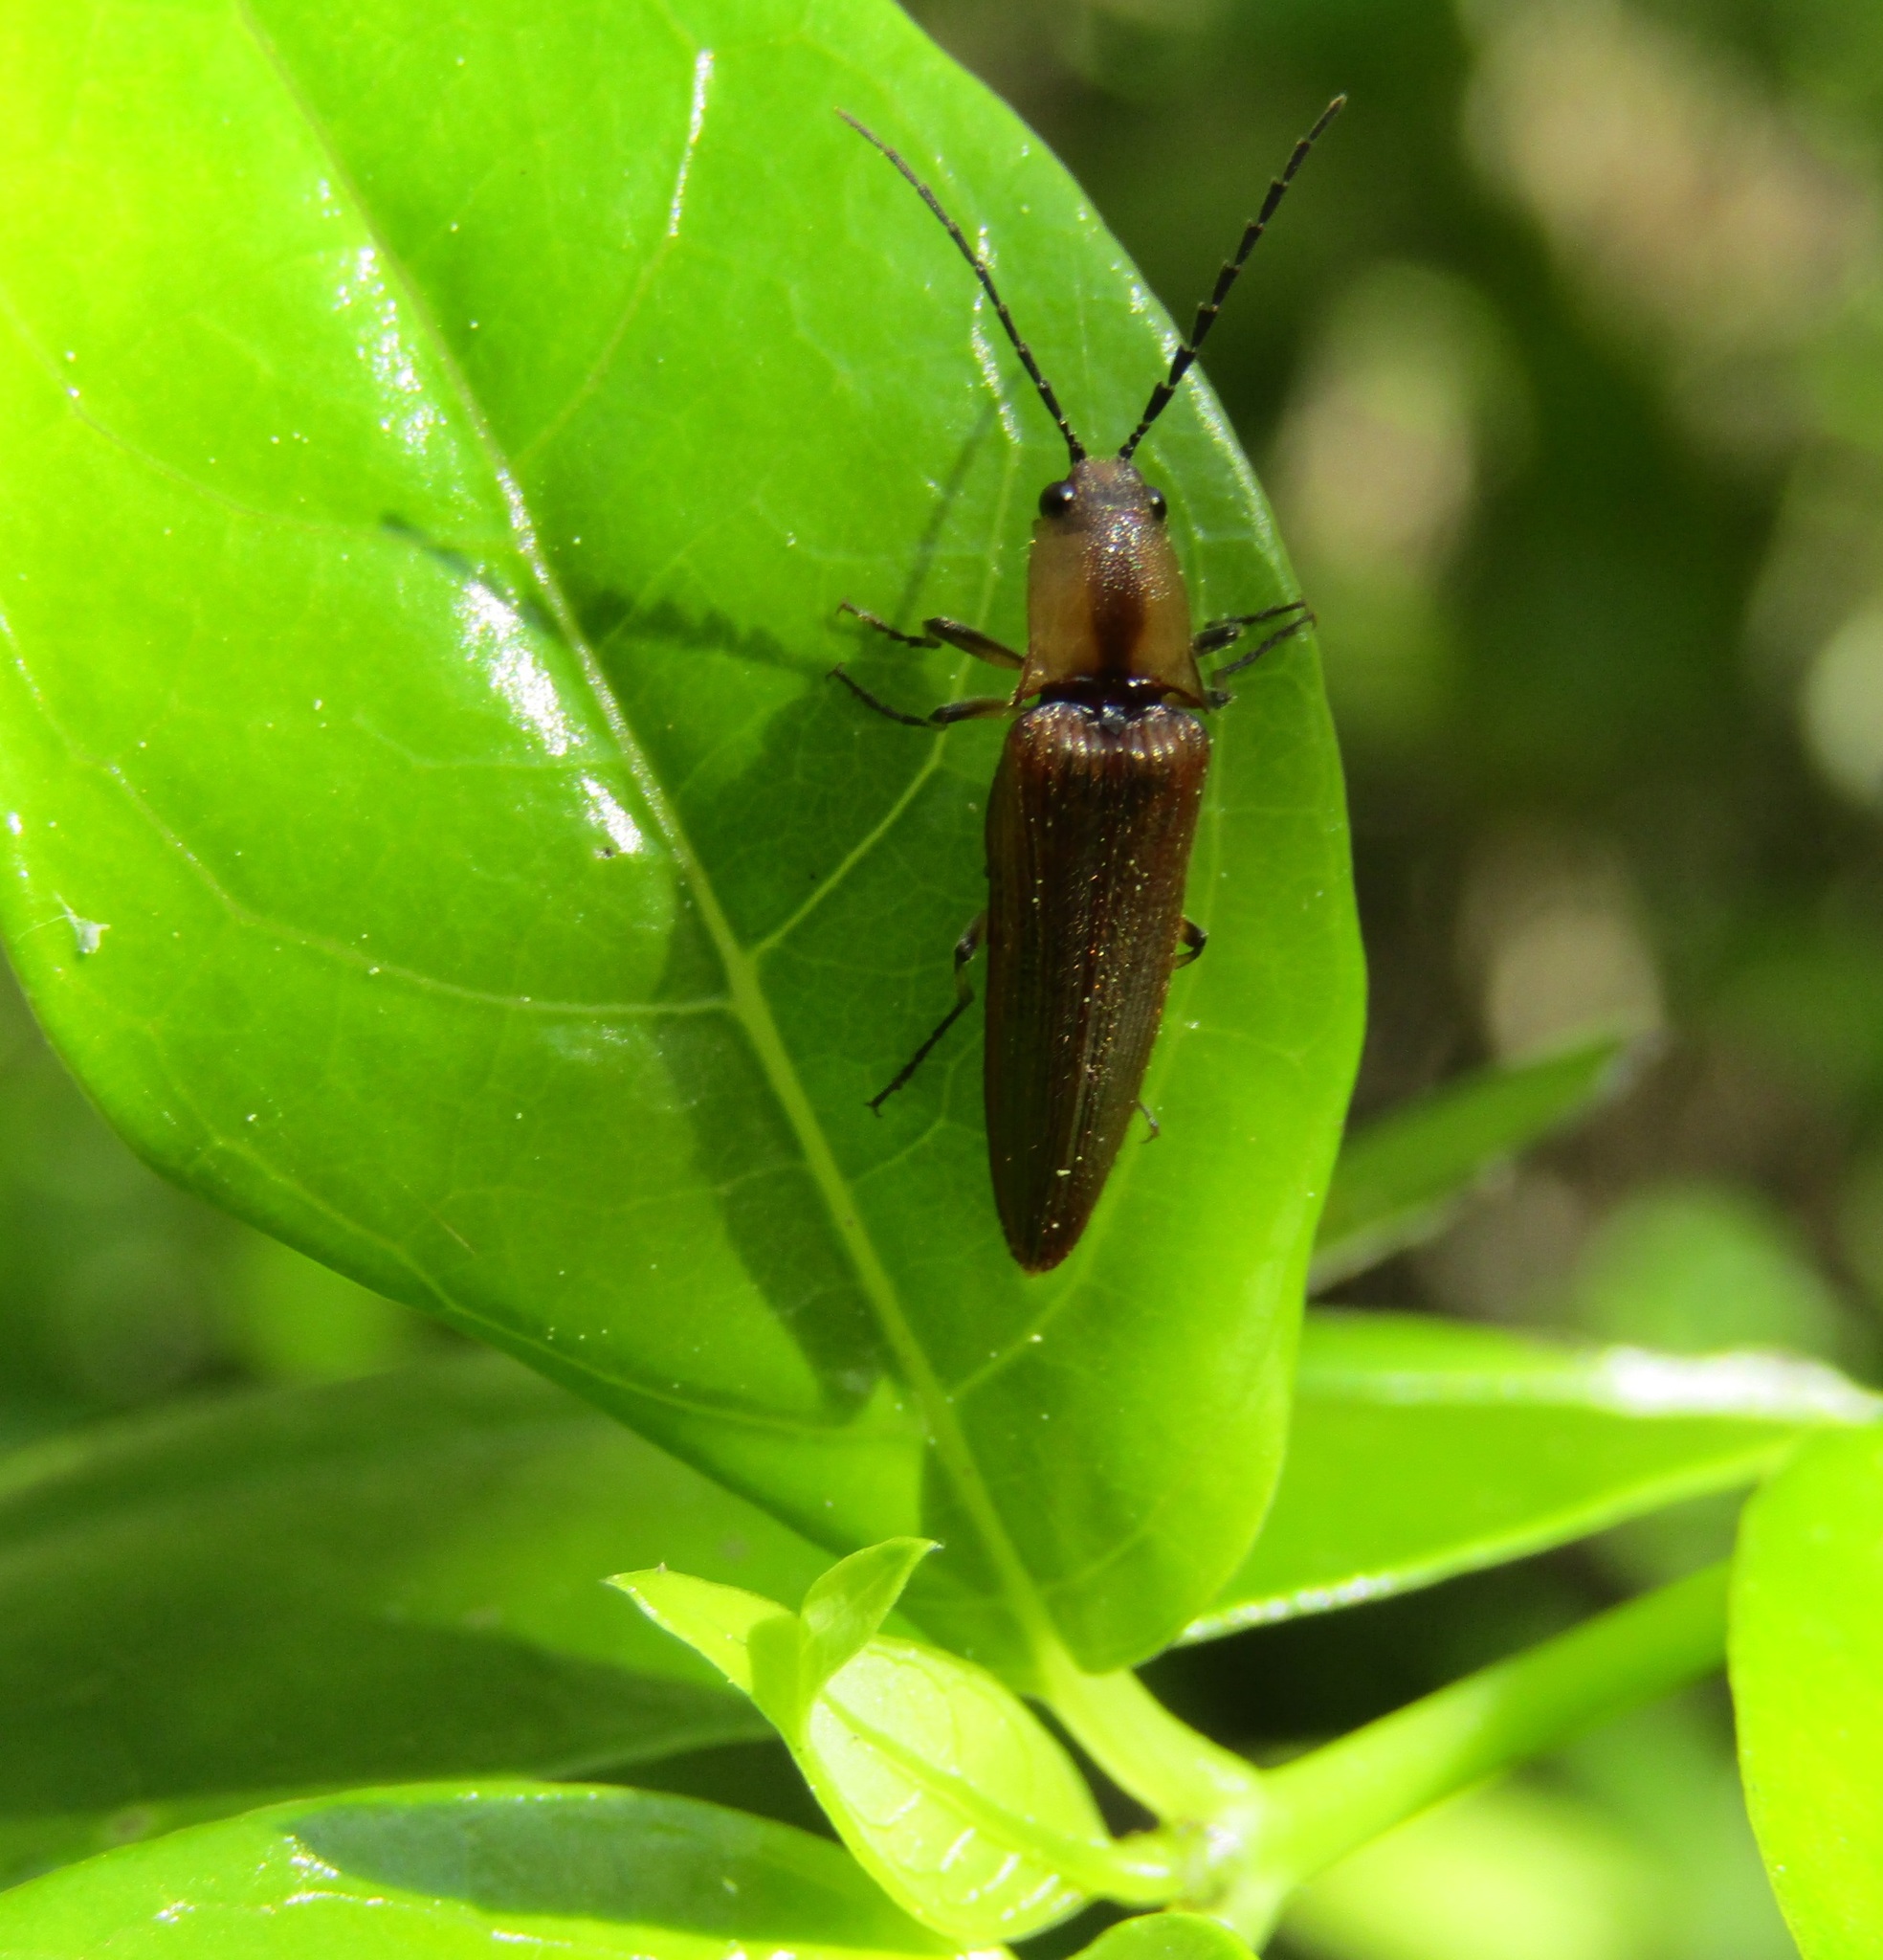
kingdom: Animalia
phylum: Arthropoda
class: Insecta
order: Coleoptera
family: Elateridae
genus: Sphaenelater
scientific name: Sphaenelater
